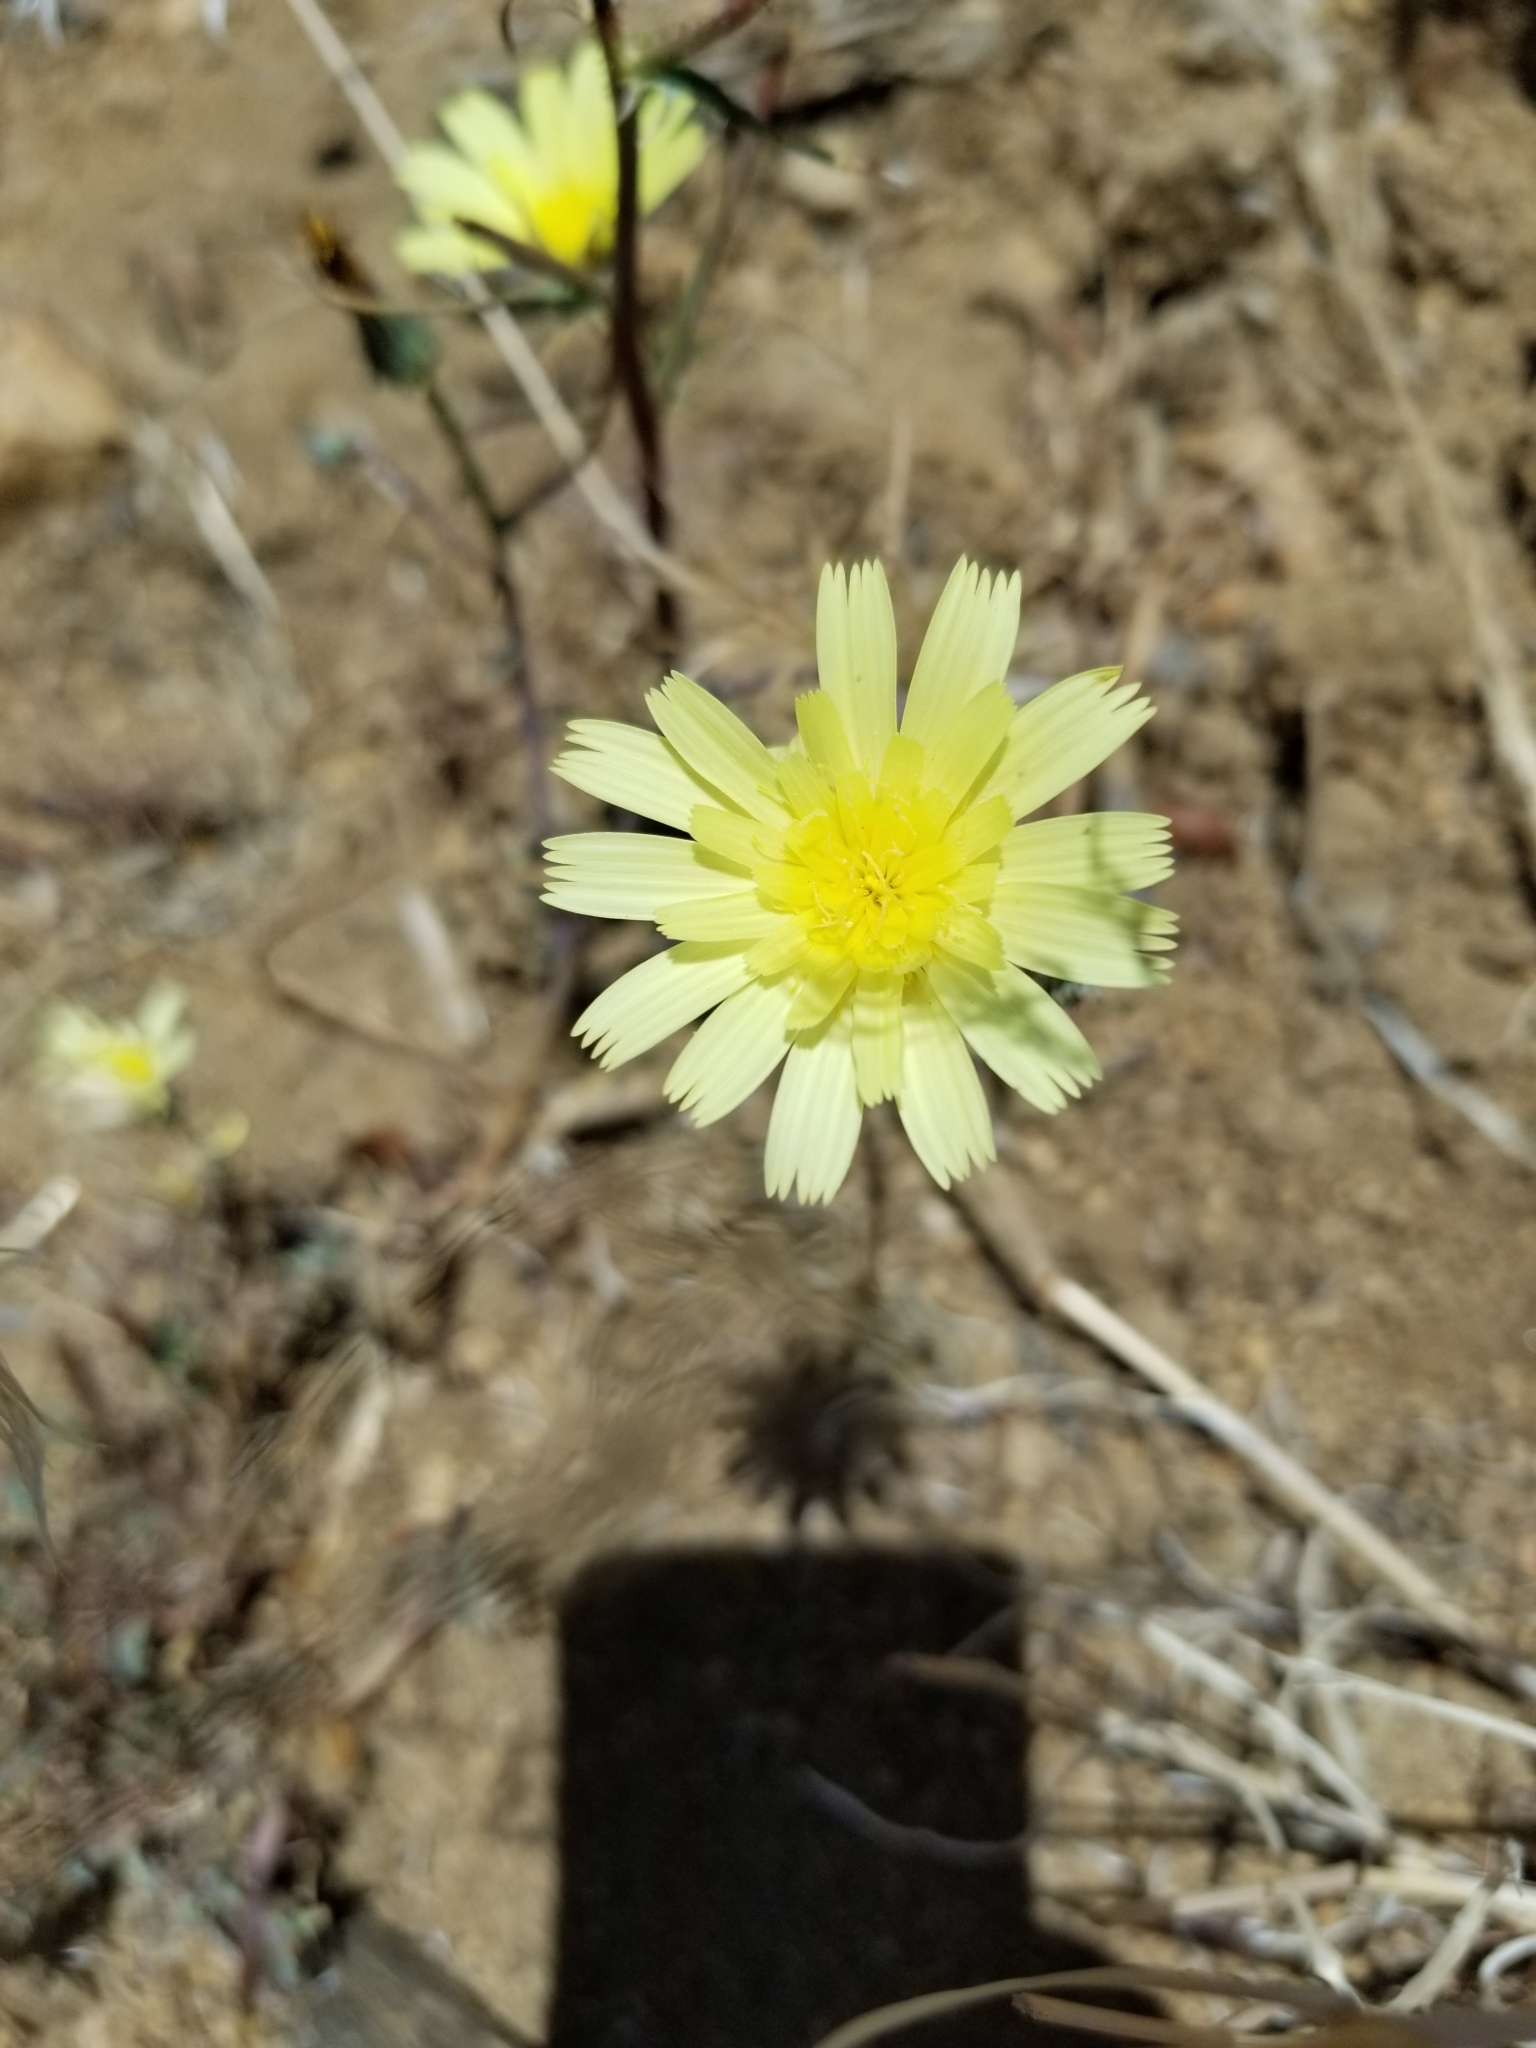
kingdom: Plantae
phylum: Tracheophyta
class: Magnoliopsida
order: Asterales
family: Asteraceae
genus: Malacothrix
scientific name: Malacothrix glabrata
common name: Smooth desert-dandelion
